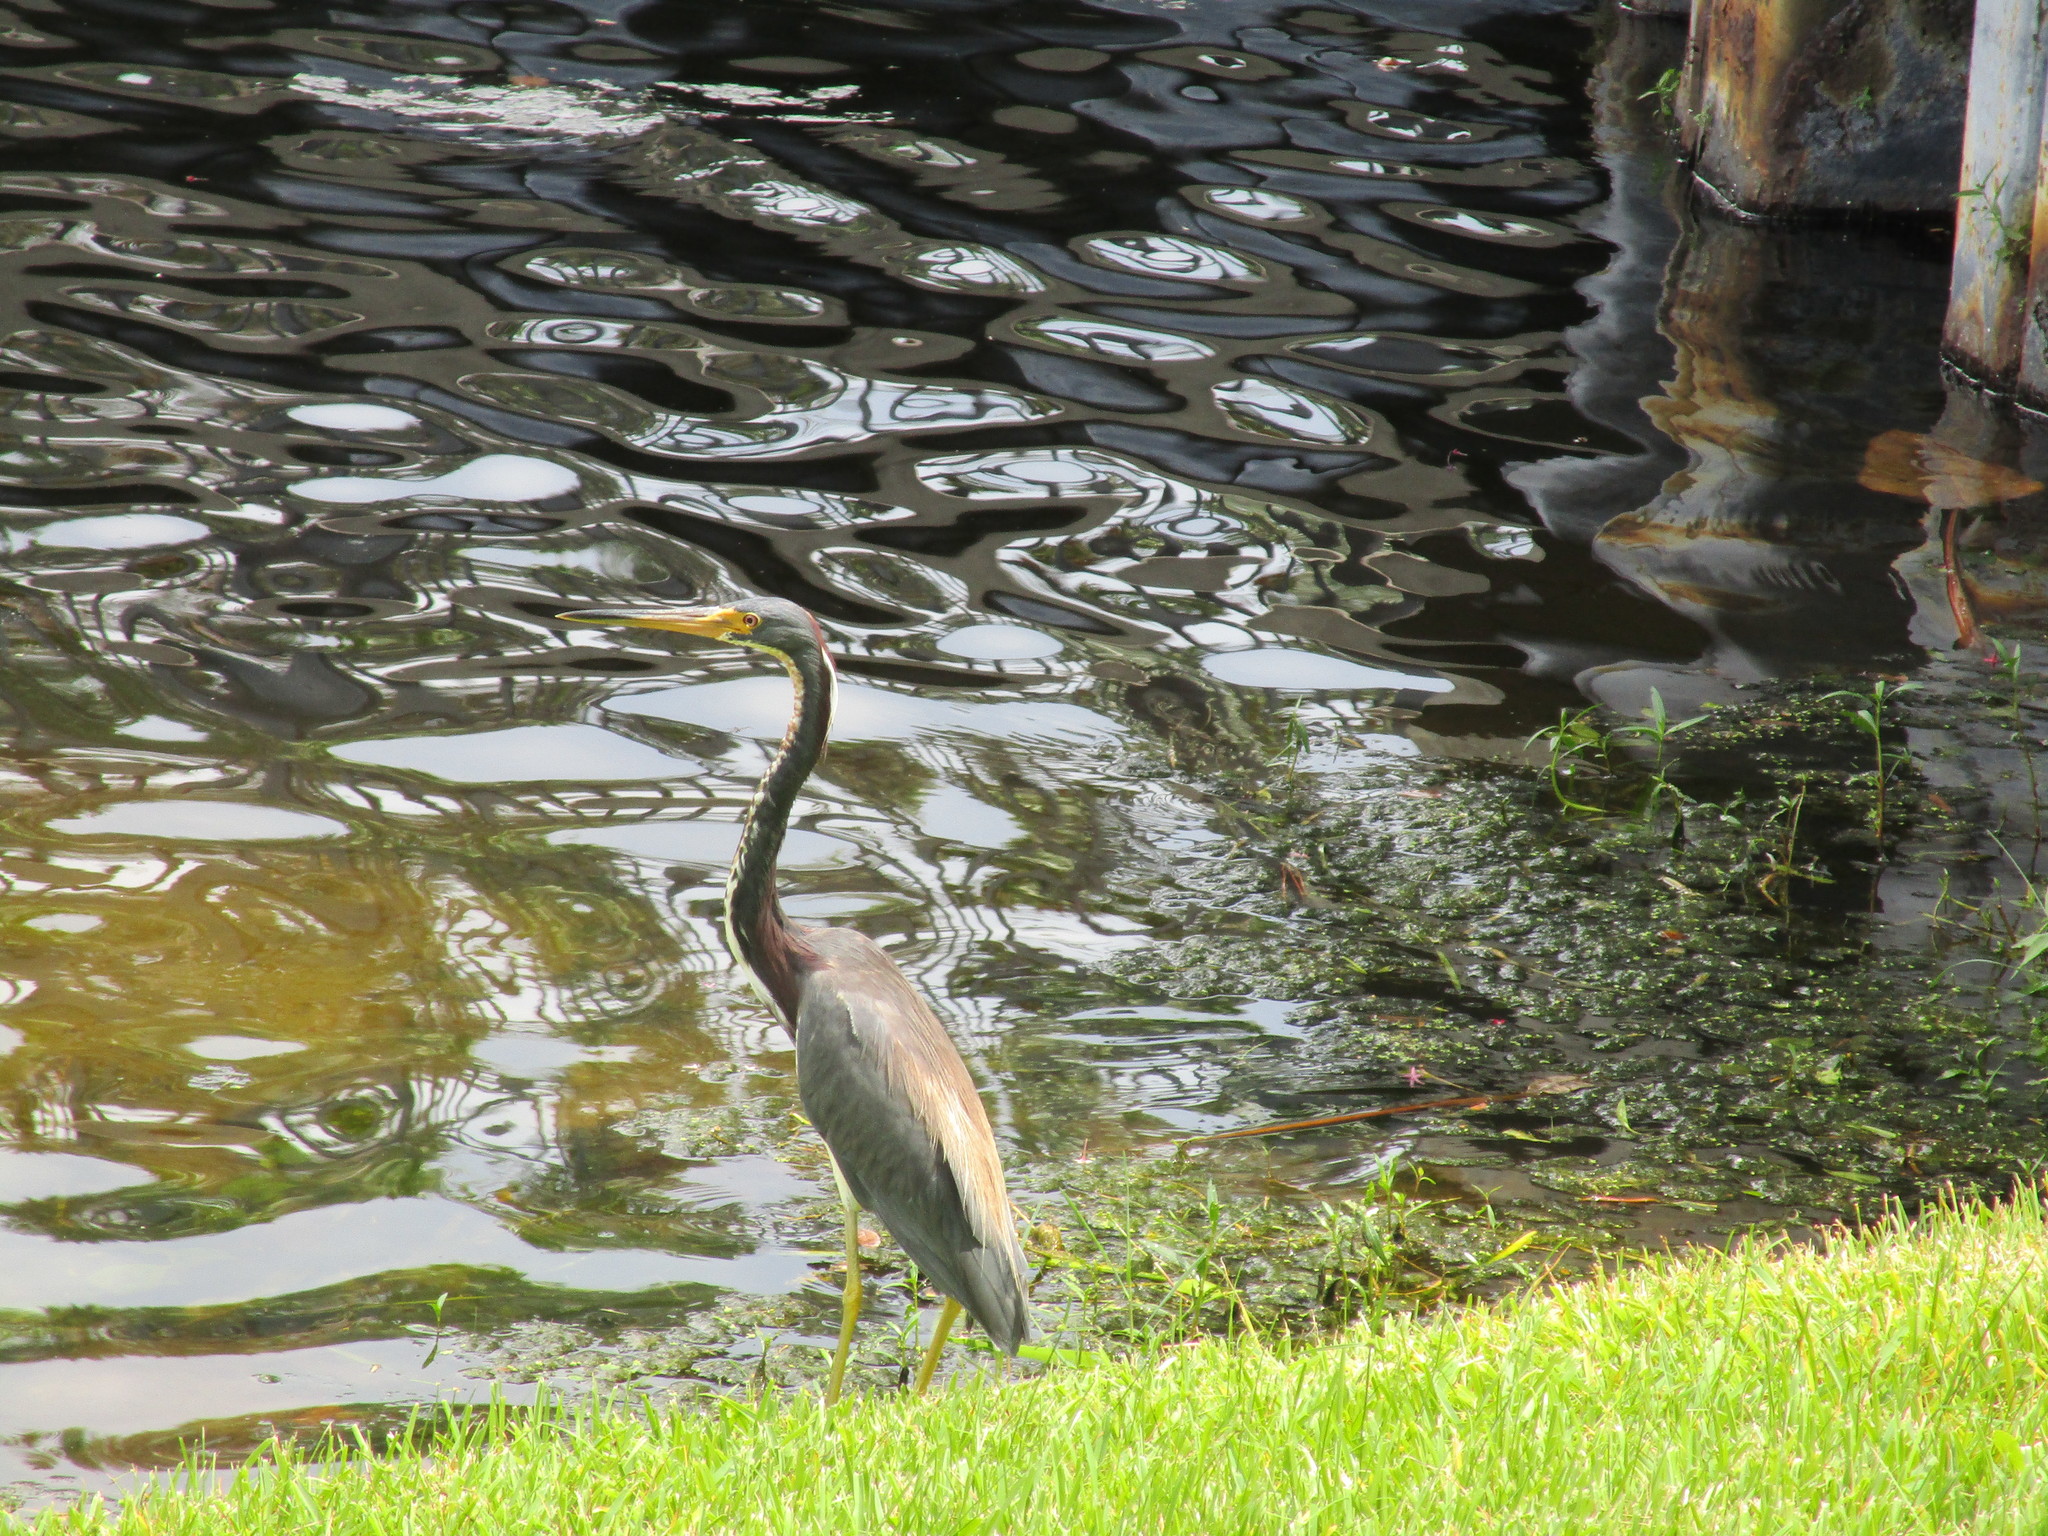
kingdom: Animalia
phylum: Chordata
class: Aves
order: Pelecaniformes
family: Ardeidae
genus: Egretta
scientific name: Egretta tricolor
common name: Tricolored heron
